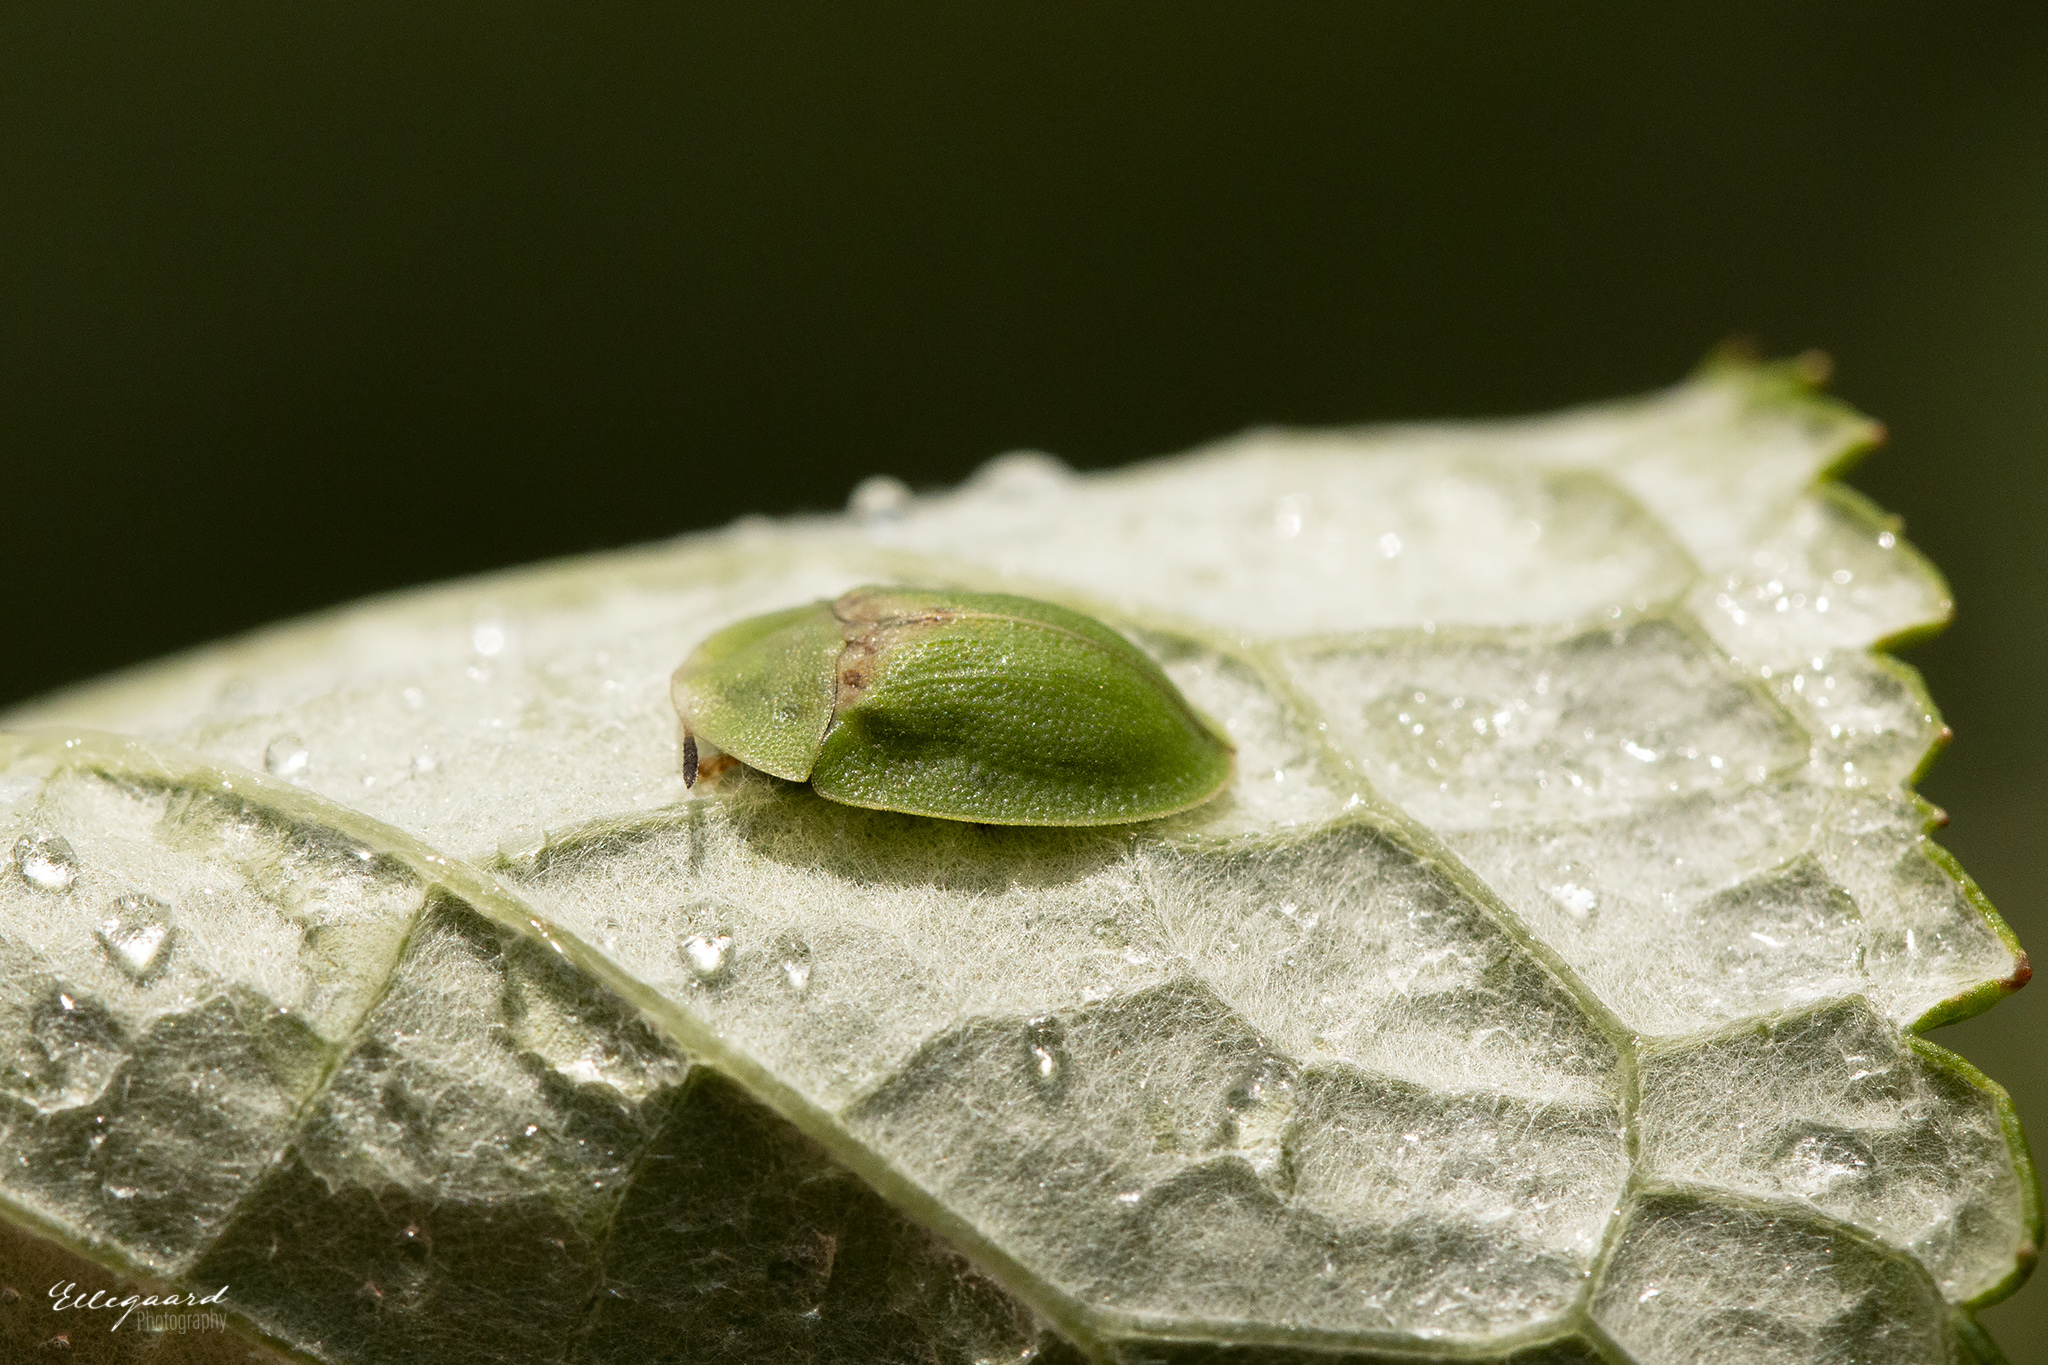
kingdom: Animalia
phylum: Arthropoda
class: Insecta
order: Coleoptera
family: Chrysomelidae
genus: Cassida
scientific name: Cassida rubiginosa
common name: Thistle tortoise beetle
